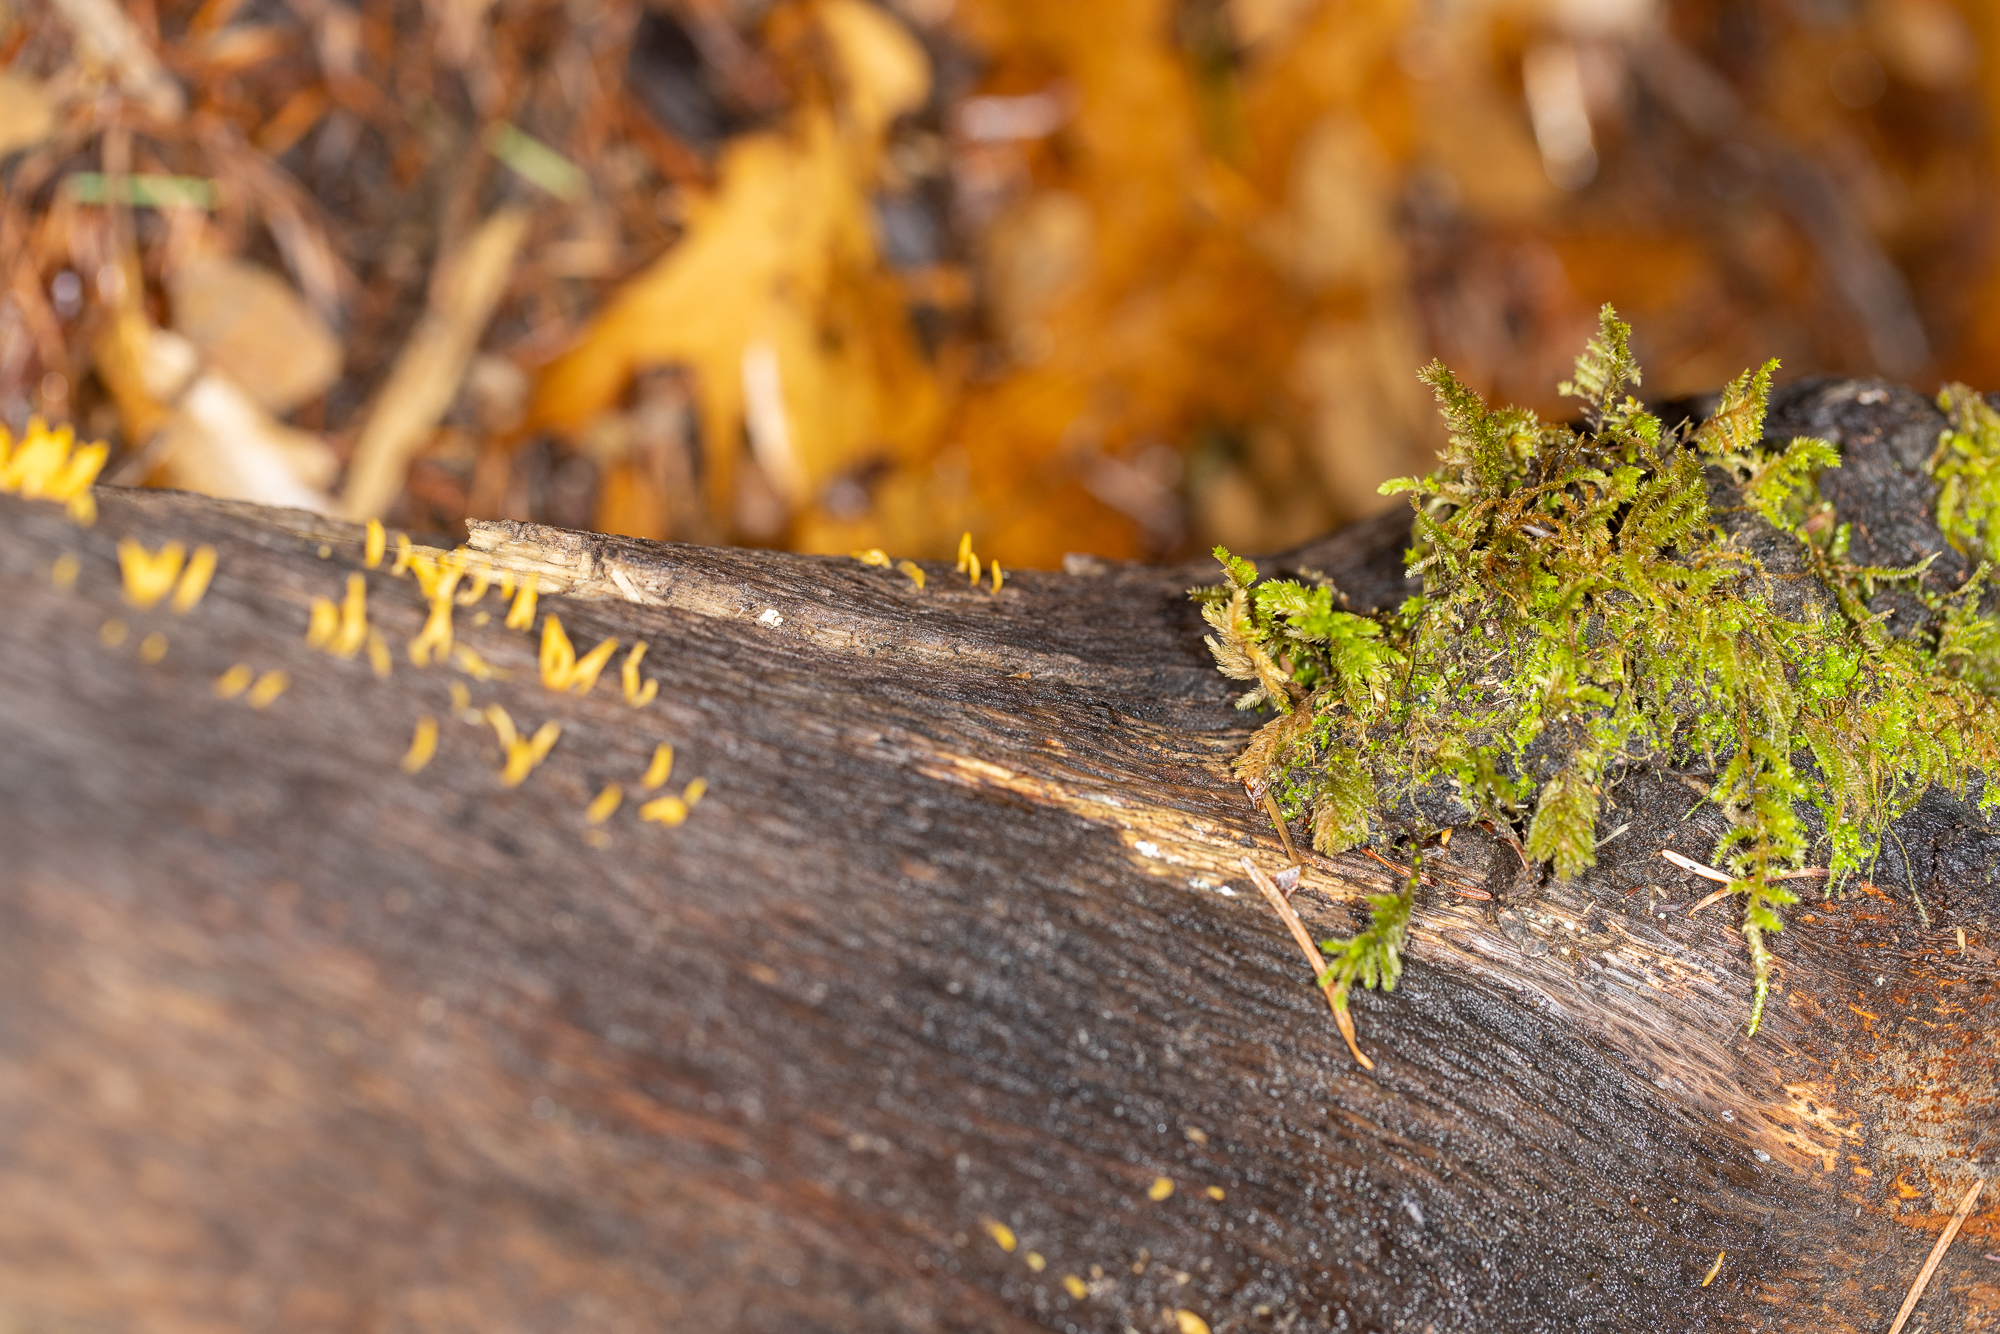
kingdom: Fungi
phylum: Basidiomycota
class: Dacrymycetes
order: Dacrymycetales
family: Dacrymycetaceae
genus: Calocera
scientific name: Calocera cornea
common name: Small stagshorn
